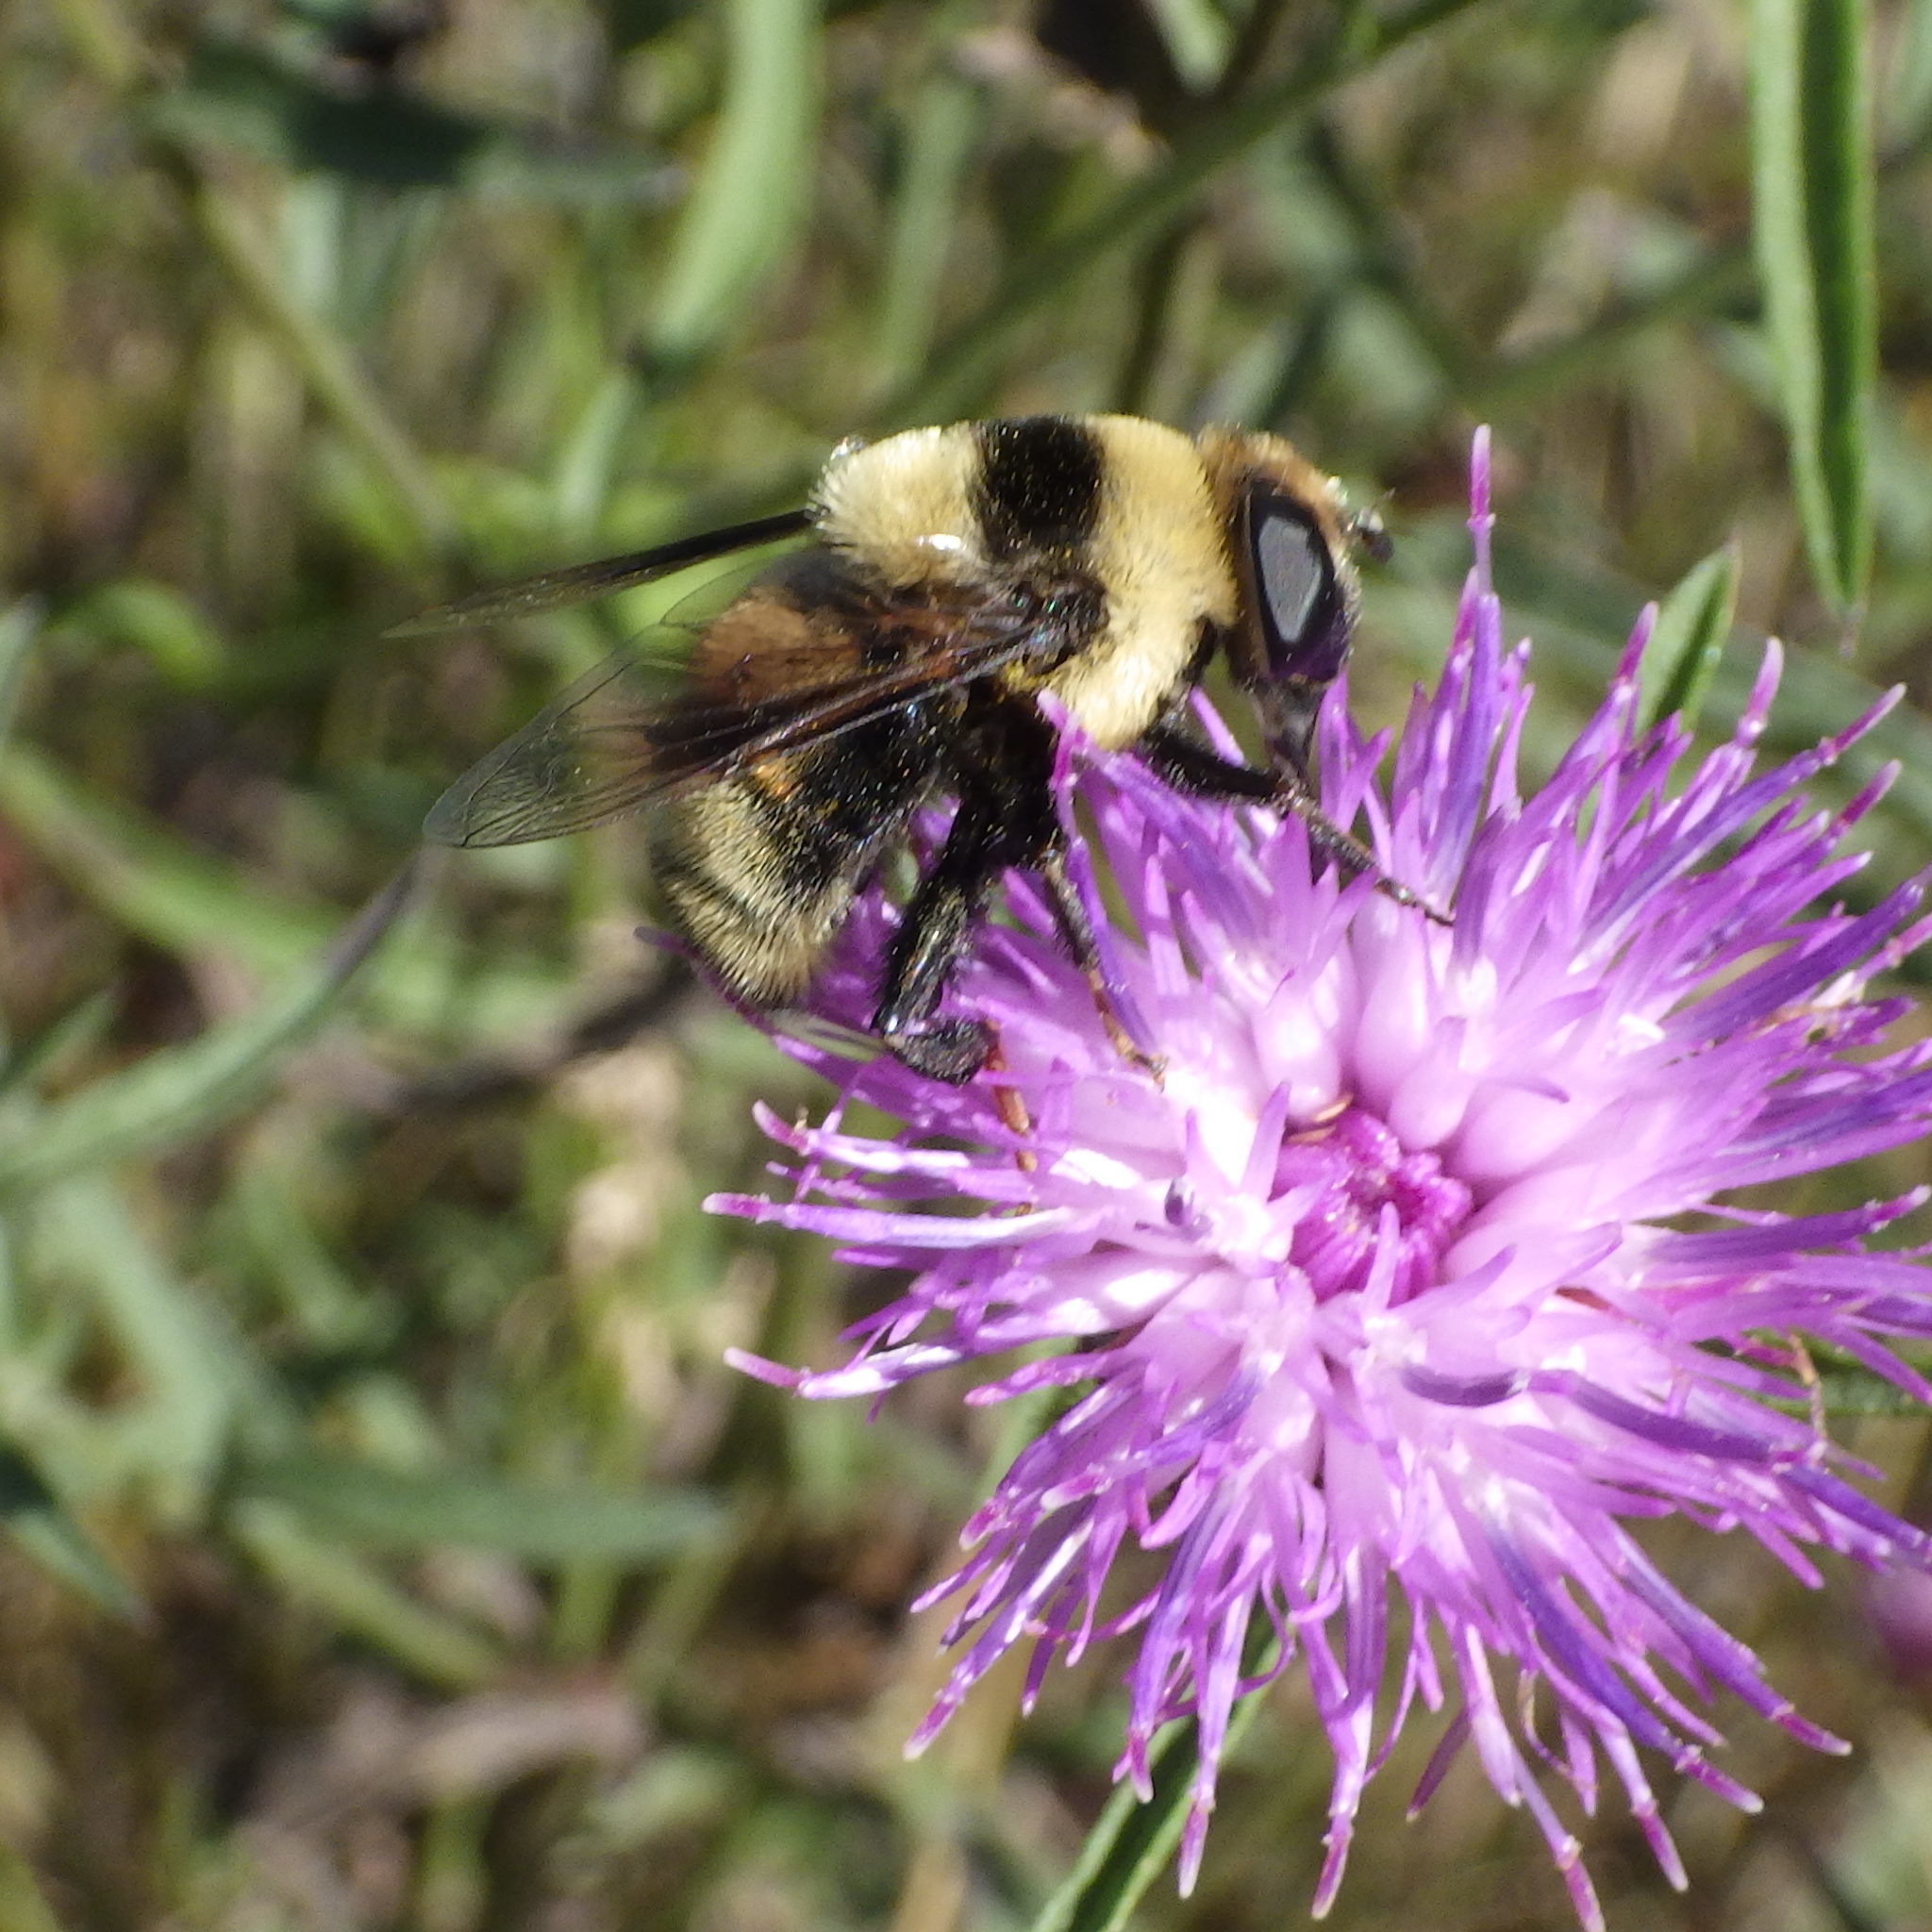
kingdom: Animalia
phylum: Arthropoda
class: Insecta
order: Diptera
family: Syrphidae
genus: Eristalis
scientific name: Eristalis flavipes
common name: Orange-legged drone fly
